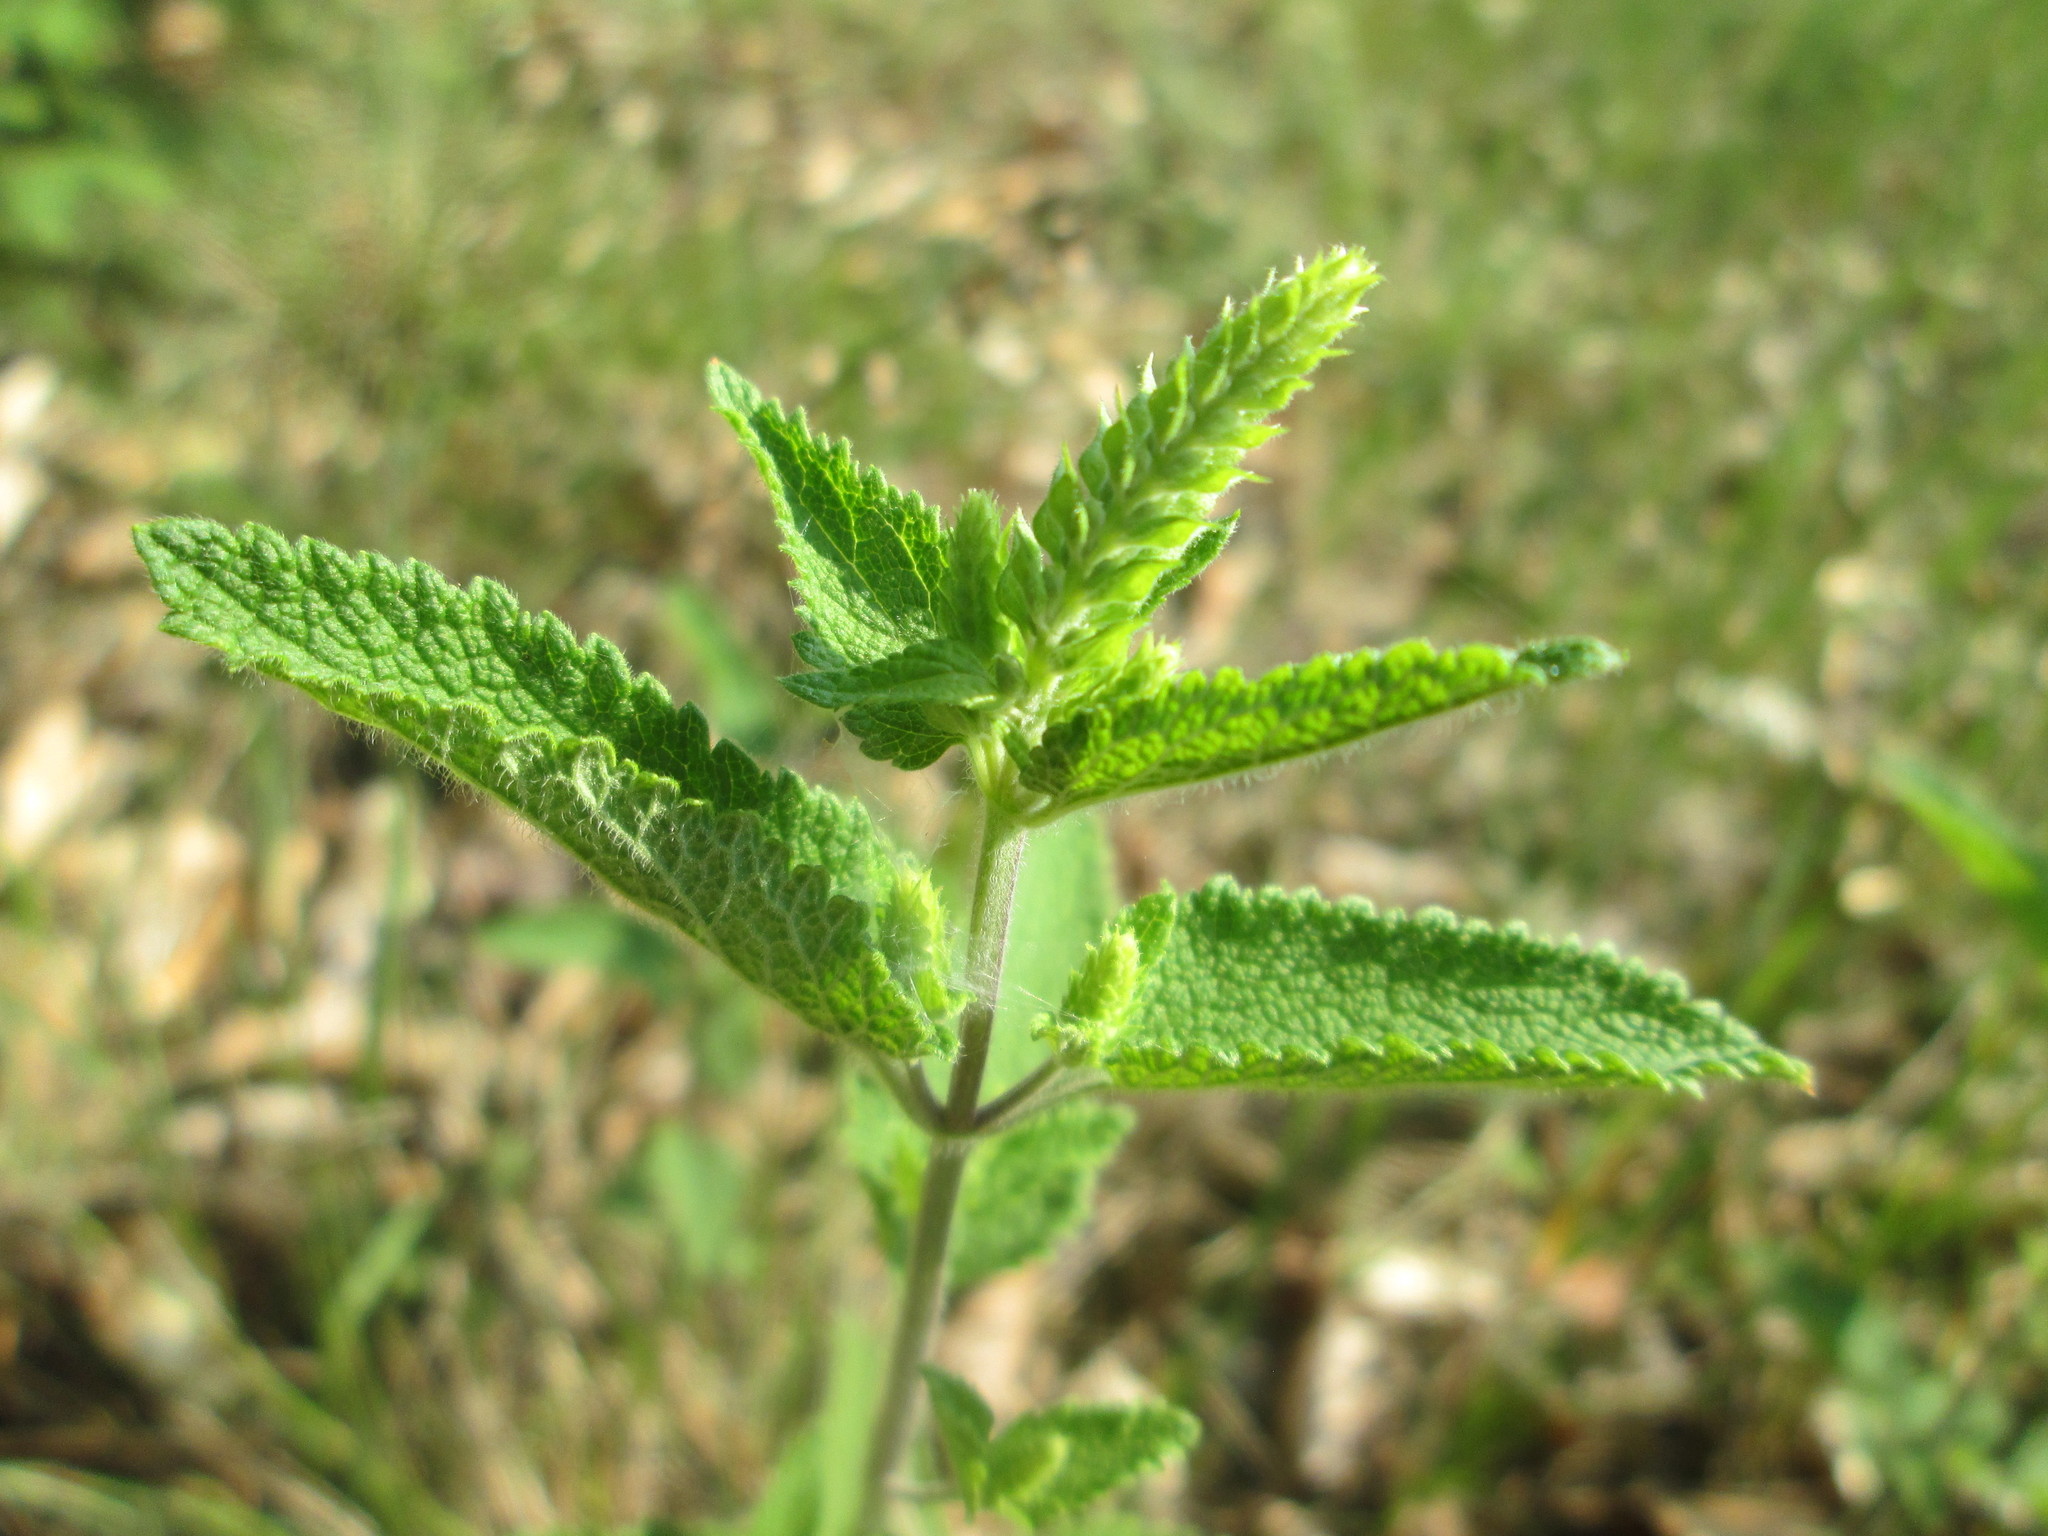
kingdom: Plantae
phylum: Tracheophyta
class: Magnoliopsida
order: Lamiales
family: Lamiaceae
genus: Teucrium
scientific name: Teucrium scorodonia
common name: Woodland germander
